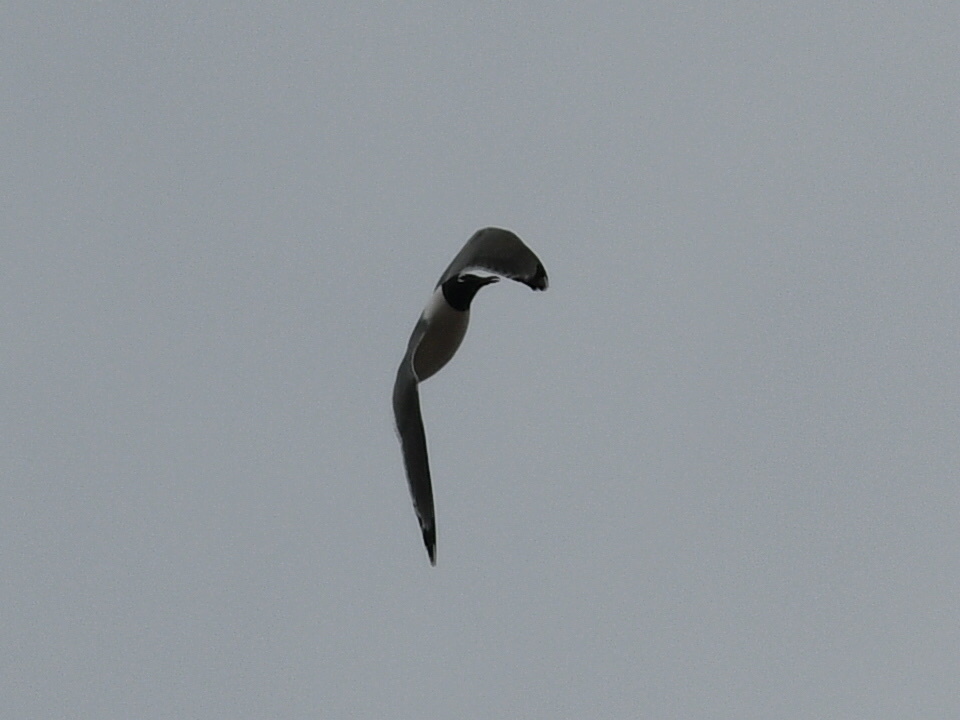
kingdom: Animalia
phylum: Chordata
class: Aves
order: Charadriiformes
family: Laridae
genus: Leucophaeus
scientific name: Leucophaeus pipixcan
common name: Franklin's gull
